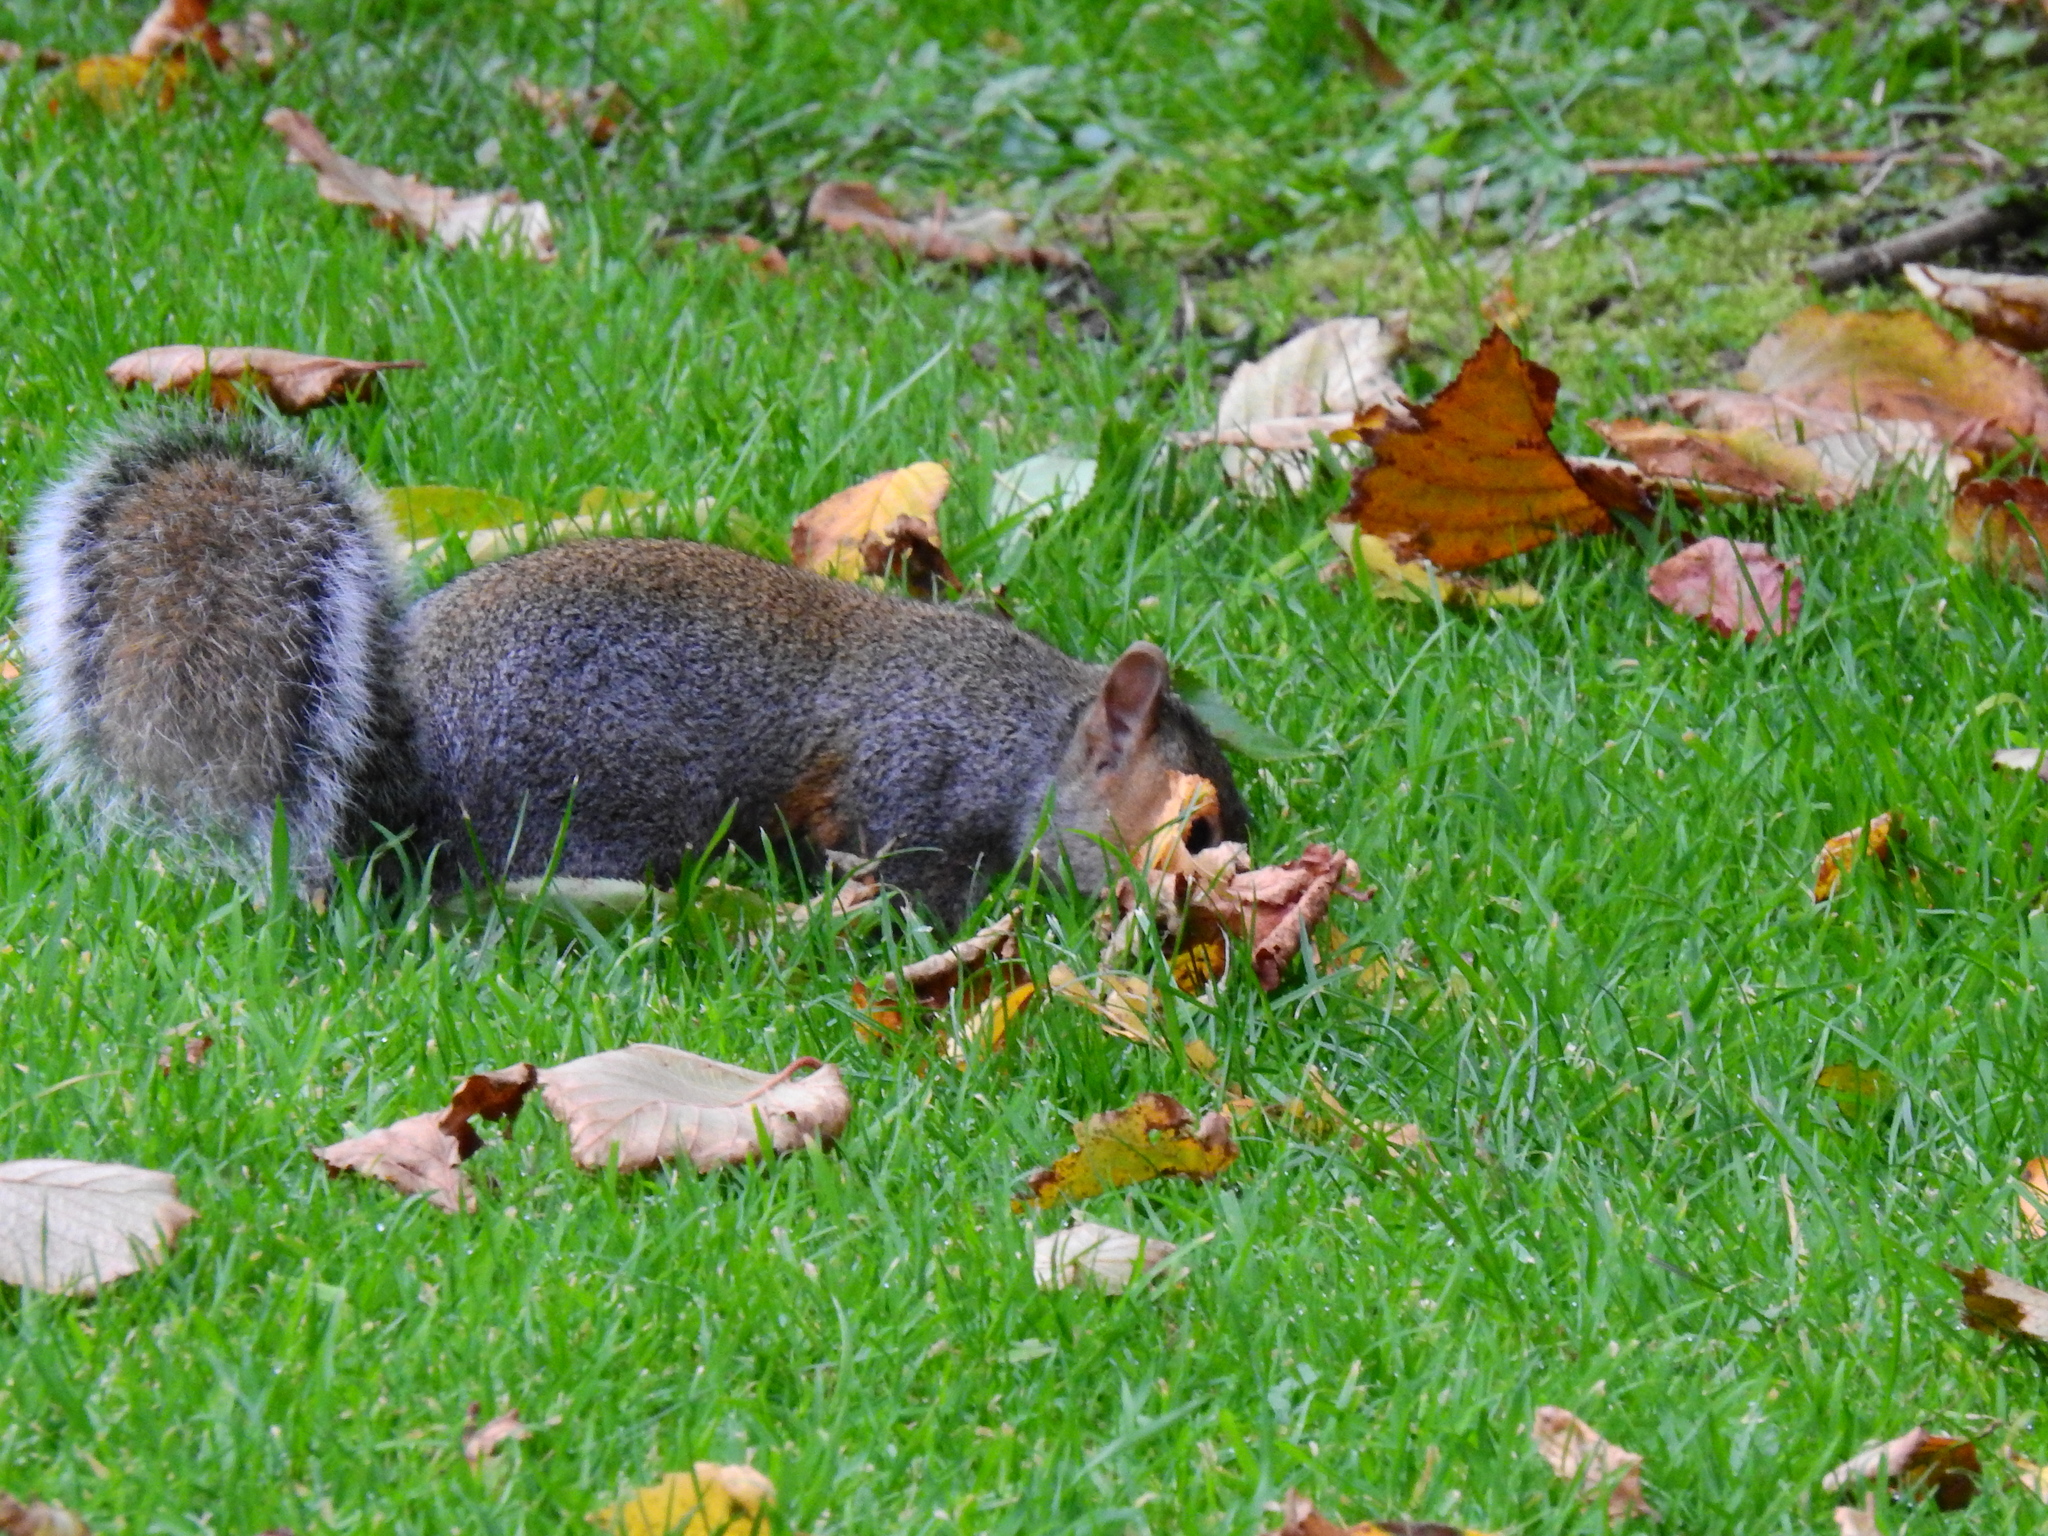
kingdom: Animalia
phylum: Chordata
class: Mammalia
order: Rodentia
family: Sciuridae
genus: Sciurus
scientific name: Sciurus carolinensis
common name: Eastern gray squirrel
